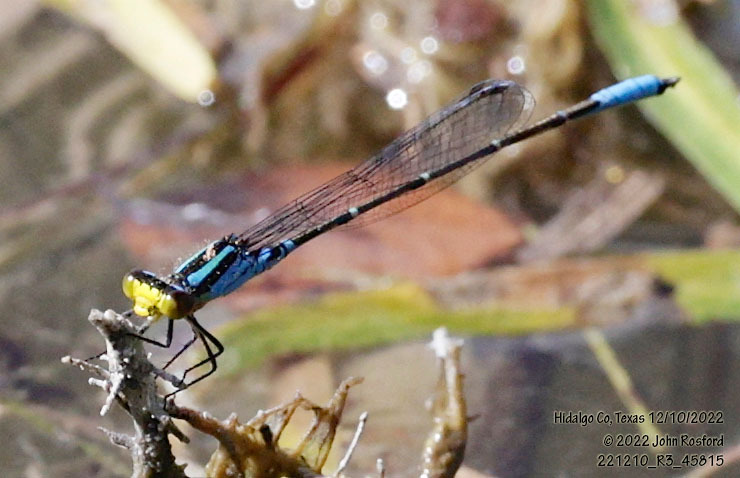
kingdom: Animalia
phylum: Arthropoda
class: Insecta
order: Odonata
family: Coenagrionidae
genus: Neoerythromma
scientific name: Neoerythromma cultellatum
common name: Caribbean yellowface
